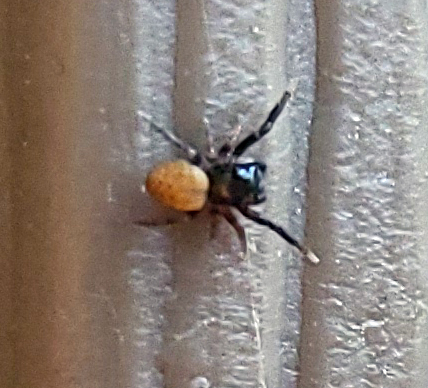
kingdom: Animalia
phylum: Arthropoda
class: Arachnida
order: Araneae
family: Salticidae
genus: Neon
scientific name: Neon nelli
